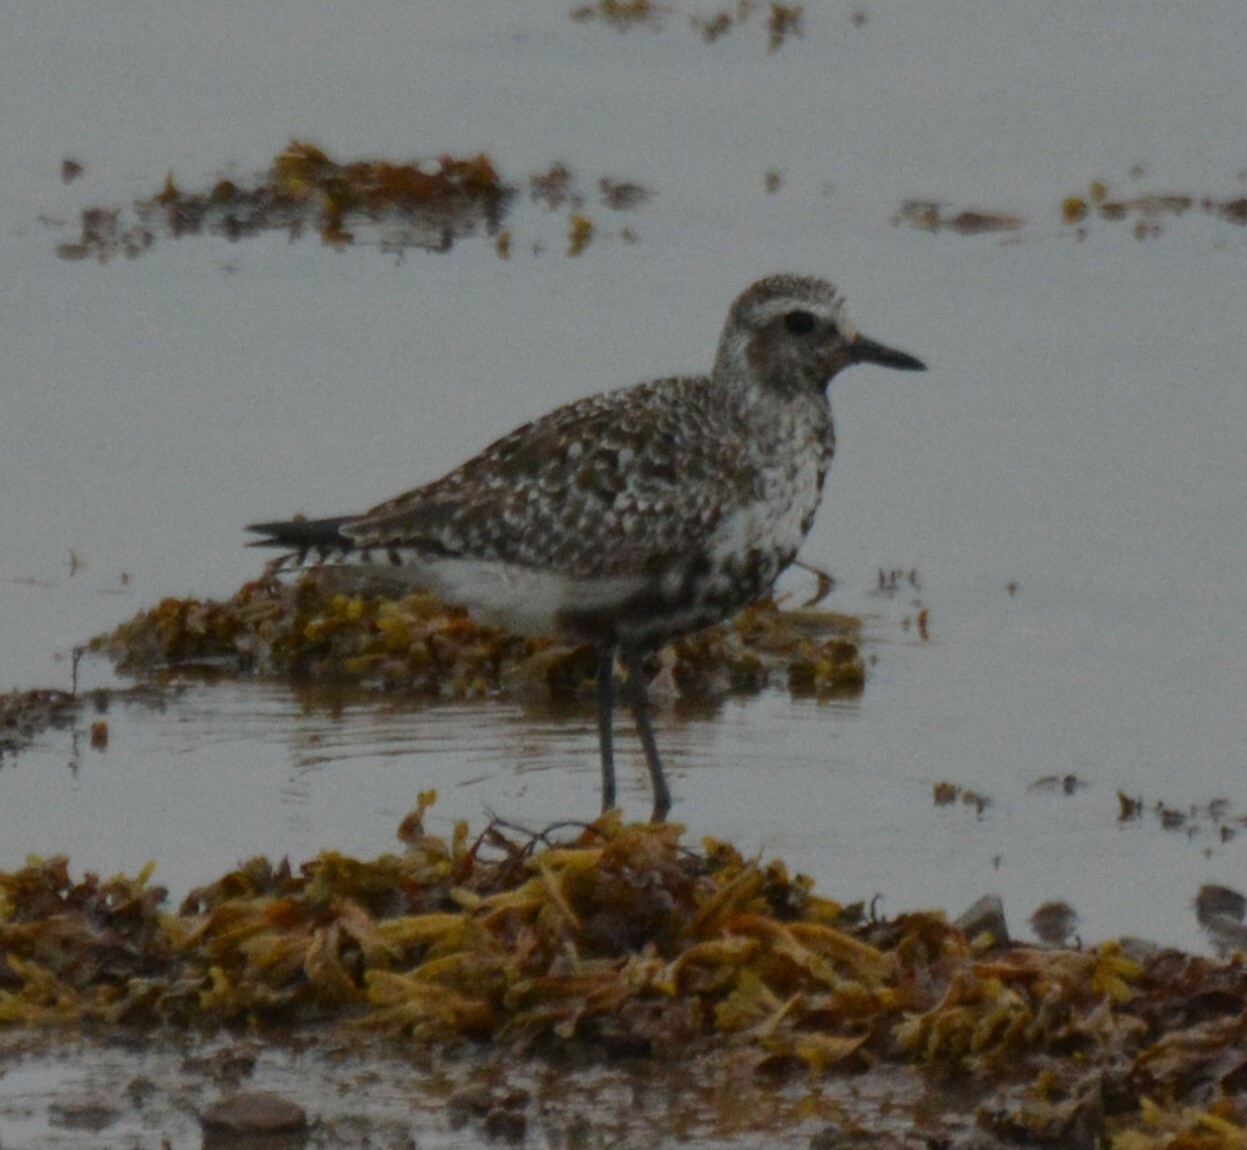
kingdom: Animalia
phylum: Chordata
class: Aves
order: Charadriiformes
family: Charadriidae
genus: Pluvialis
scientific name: Pluvialis squatarola
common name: Grey plover
